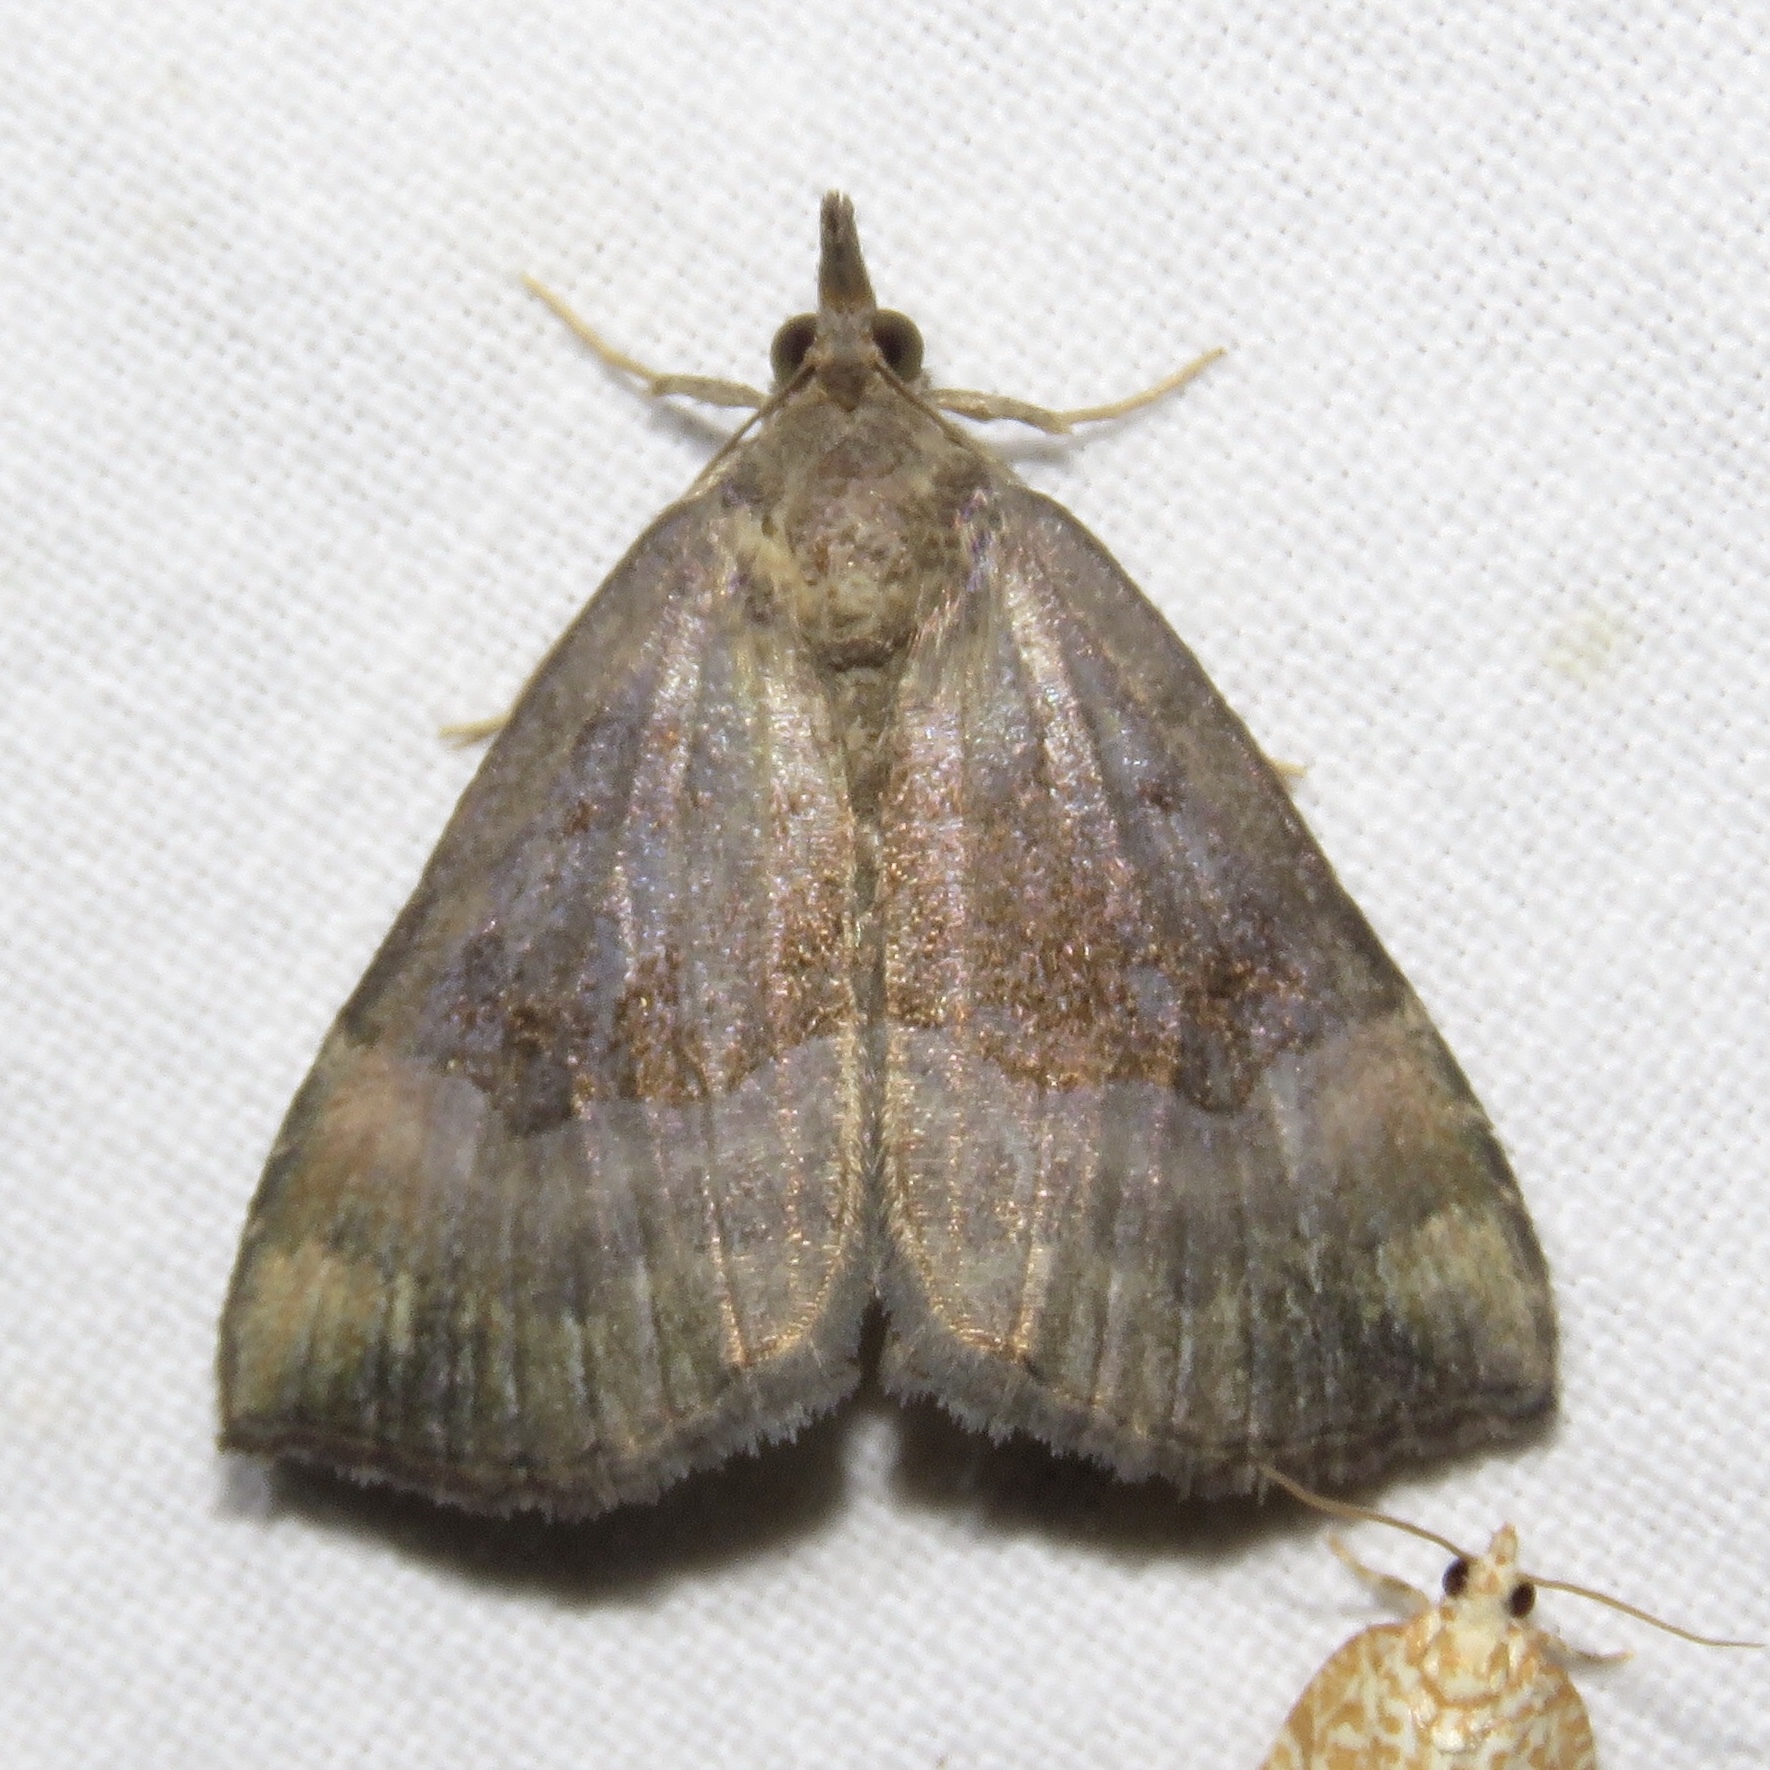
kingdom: Animalia
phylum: Arthropoda
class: Insecta
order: Lepidoptera
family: Erebidae
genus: Hypena
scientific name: Hypena madefactalis
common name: Gray-edged snout
